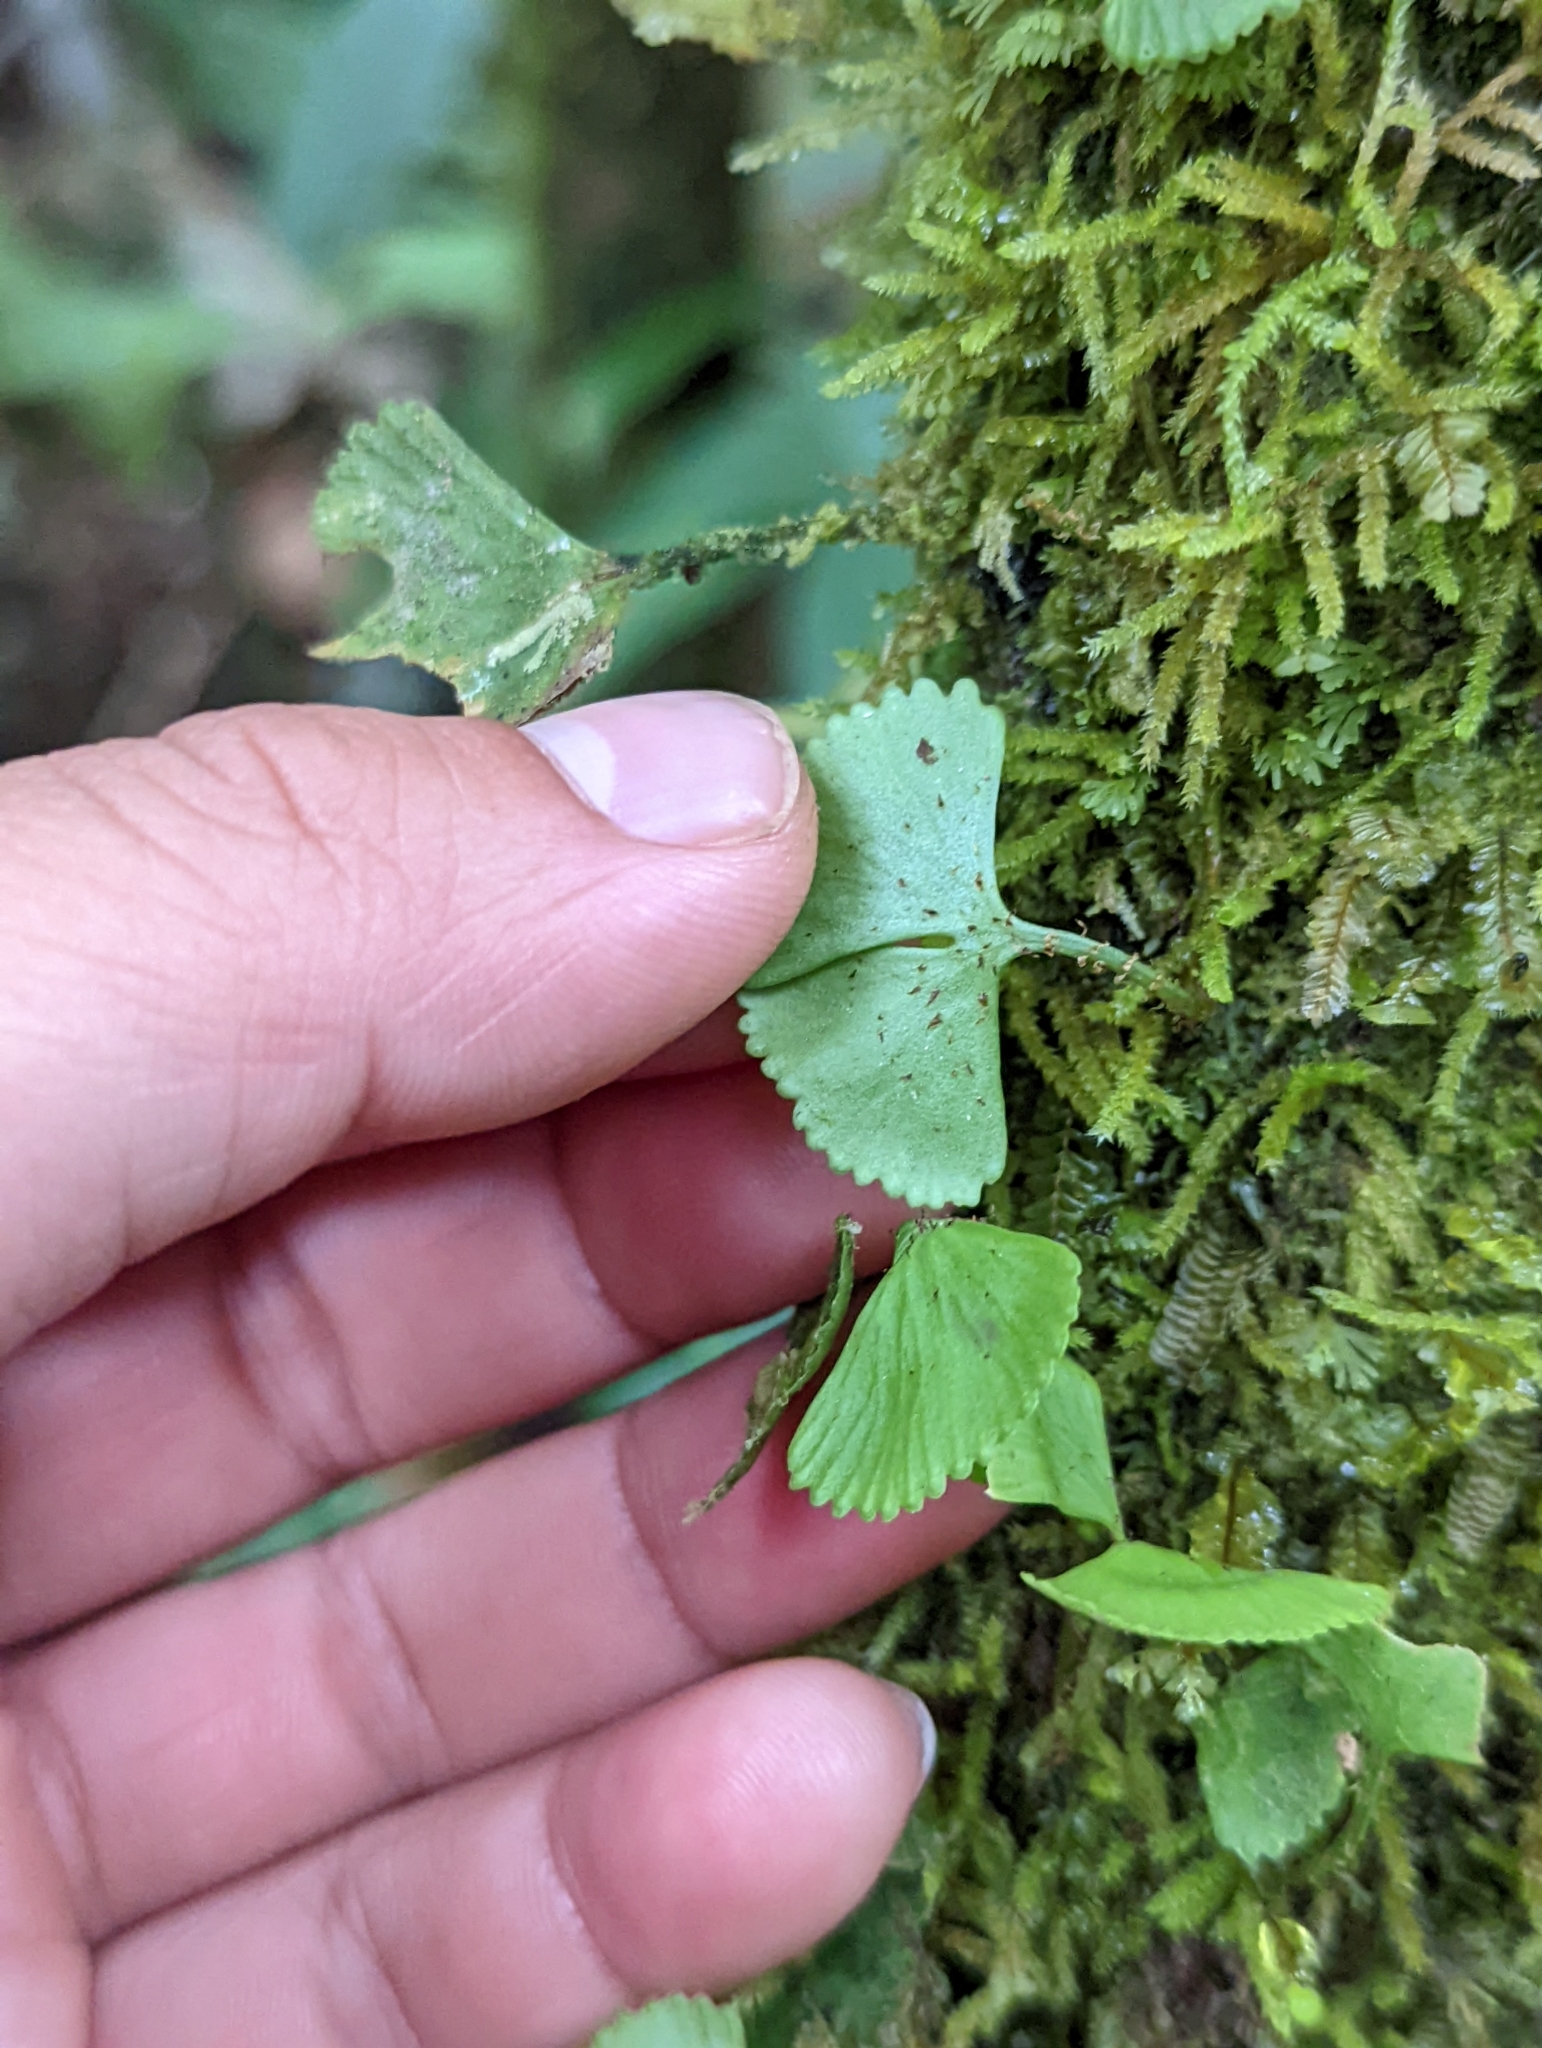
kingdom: Plantae
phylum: Tracheophyta
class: Polypodiopsida
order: Polypodiales
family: Dryopteridaceae
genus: Elaphoglossum
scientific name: Elaphoglossum peltatum
